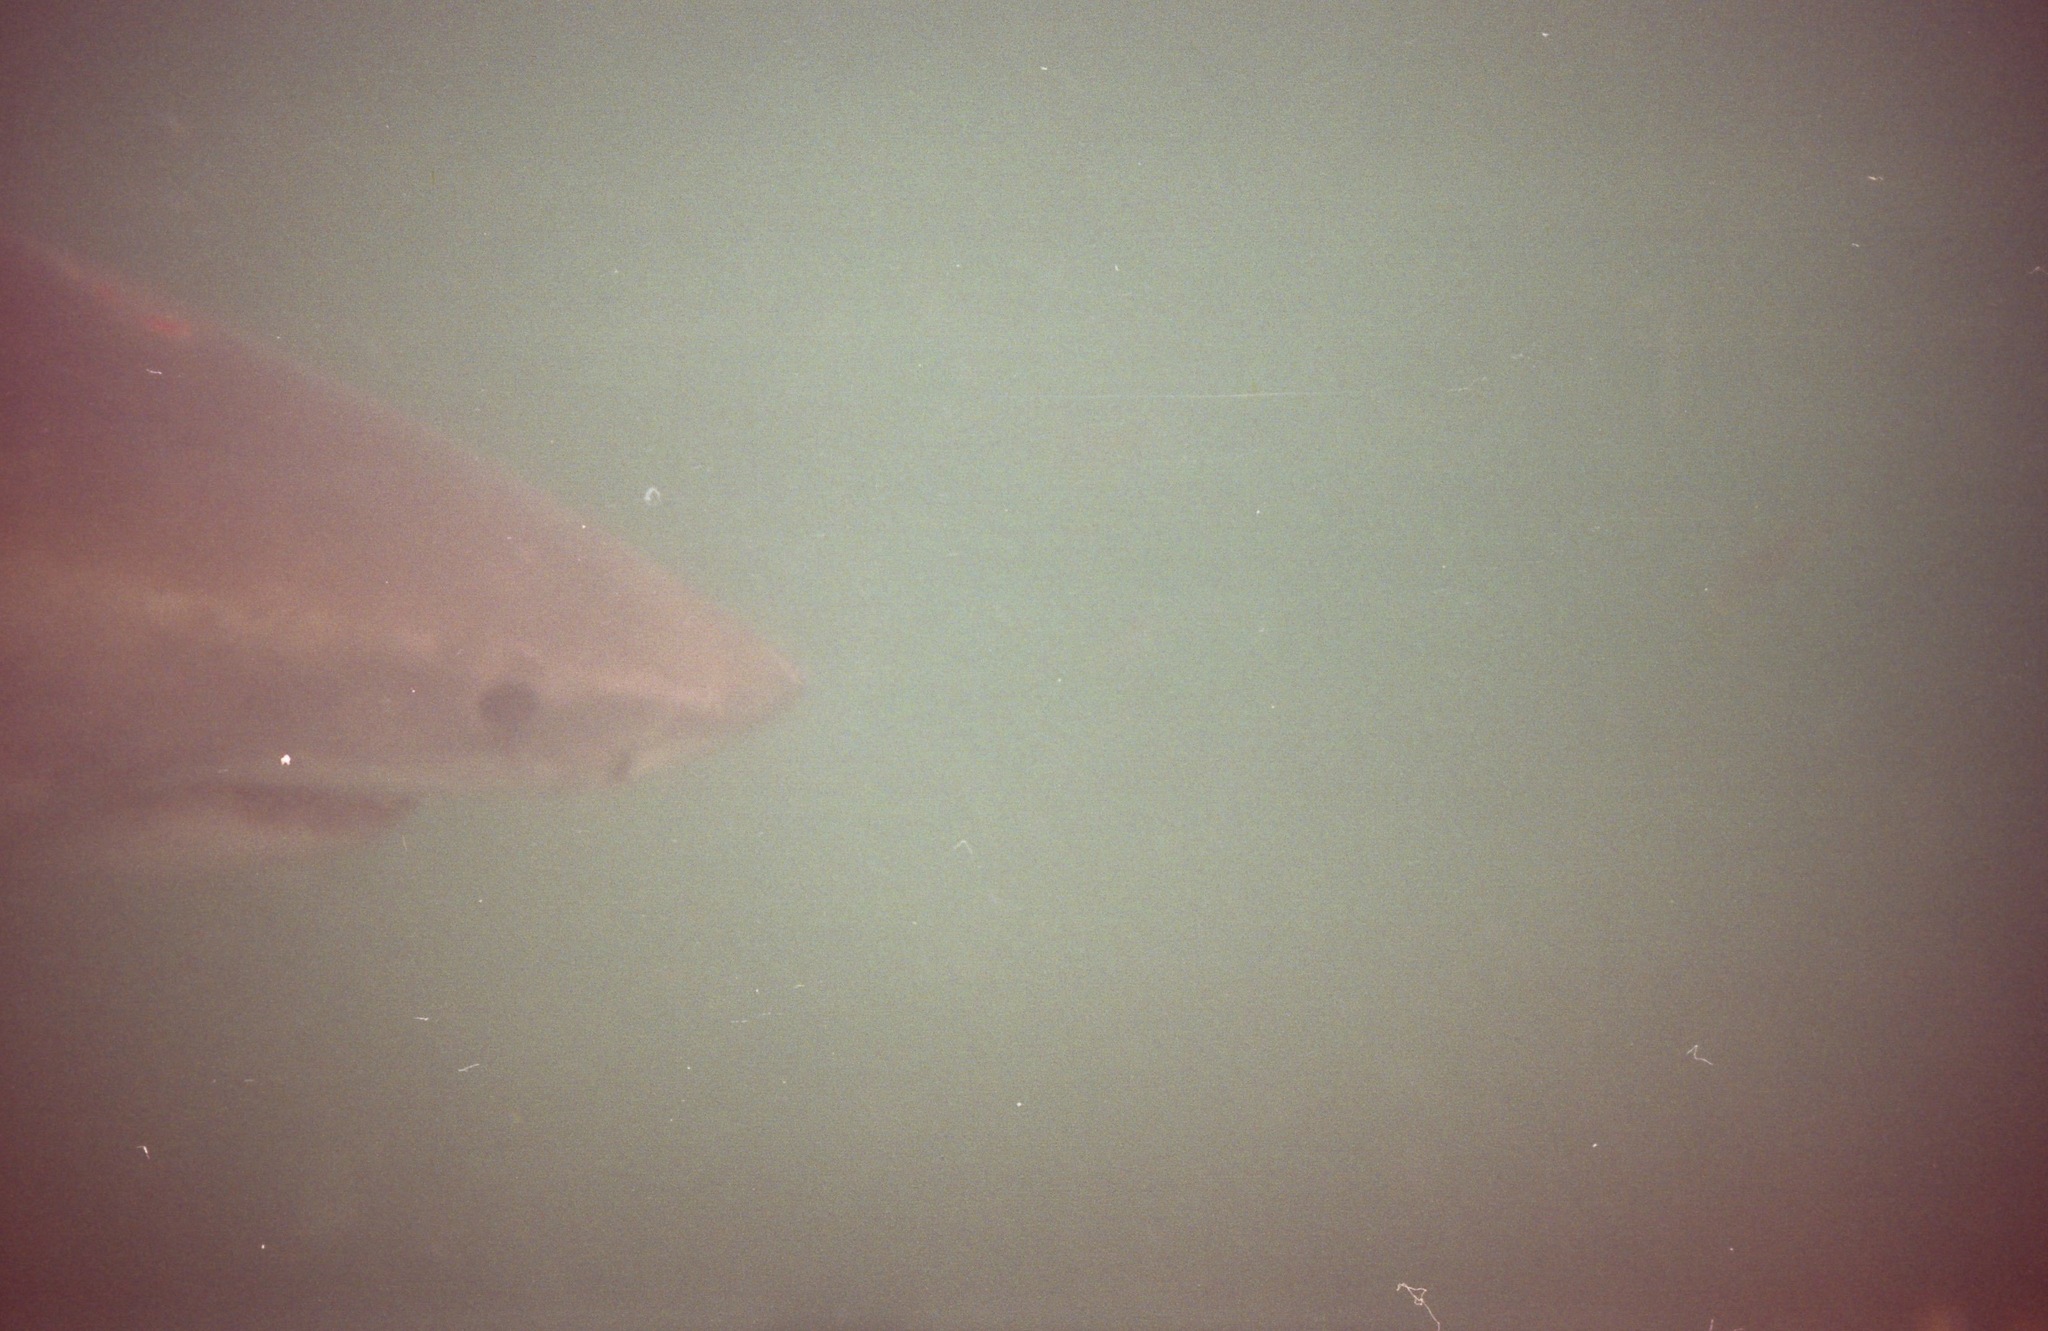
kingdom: Animalia
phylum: Chordata
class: Elasmobranchii
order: Lamniformes
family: Lamnidae
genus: Carcharodon
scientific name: Carcharodon carcharias
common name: Great white shark
